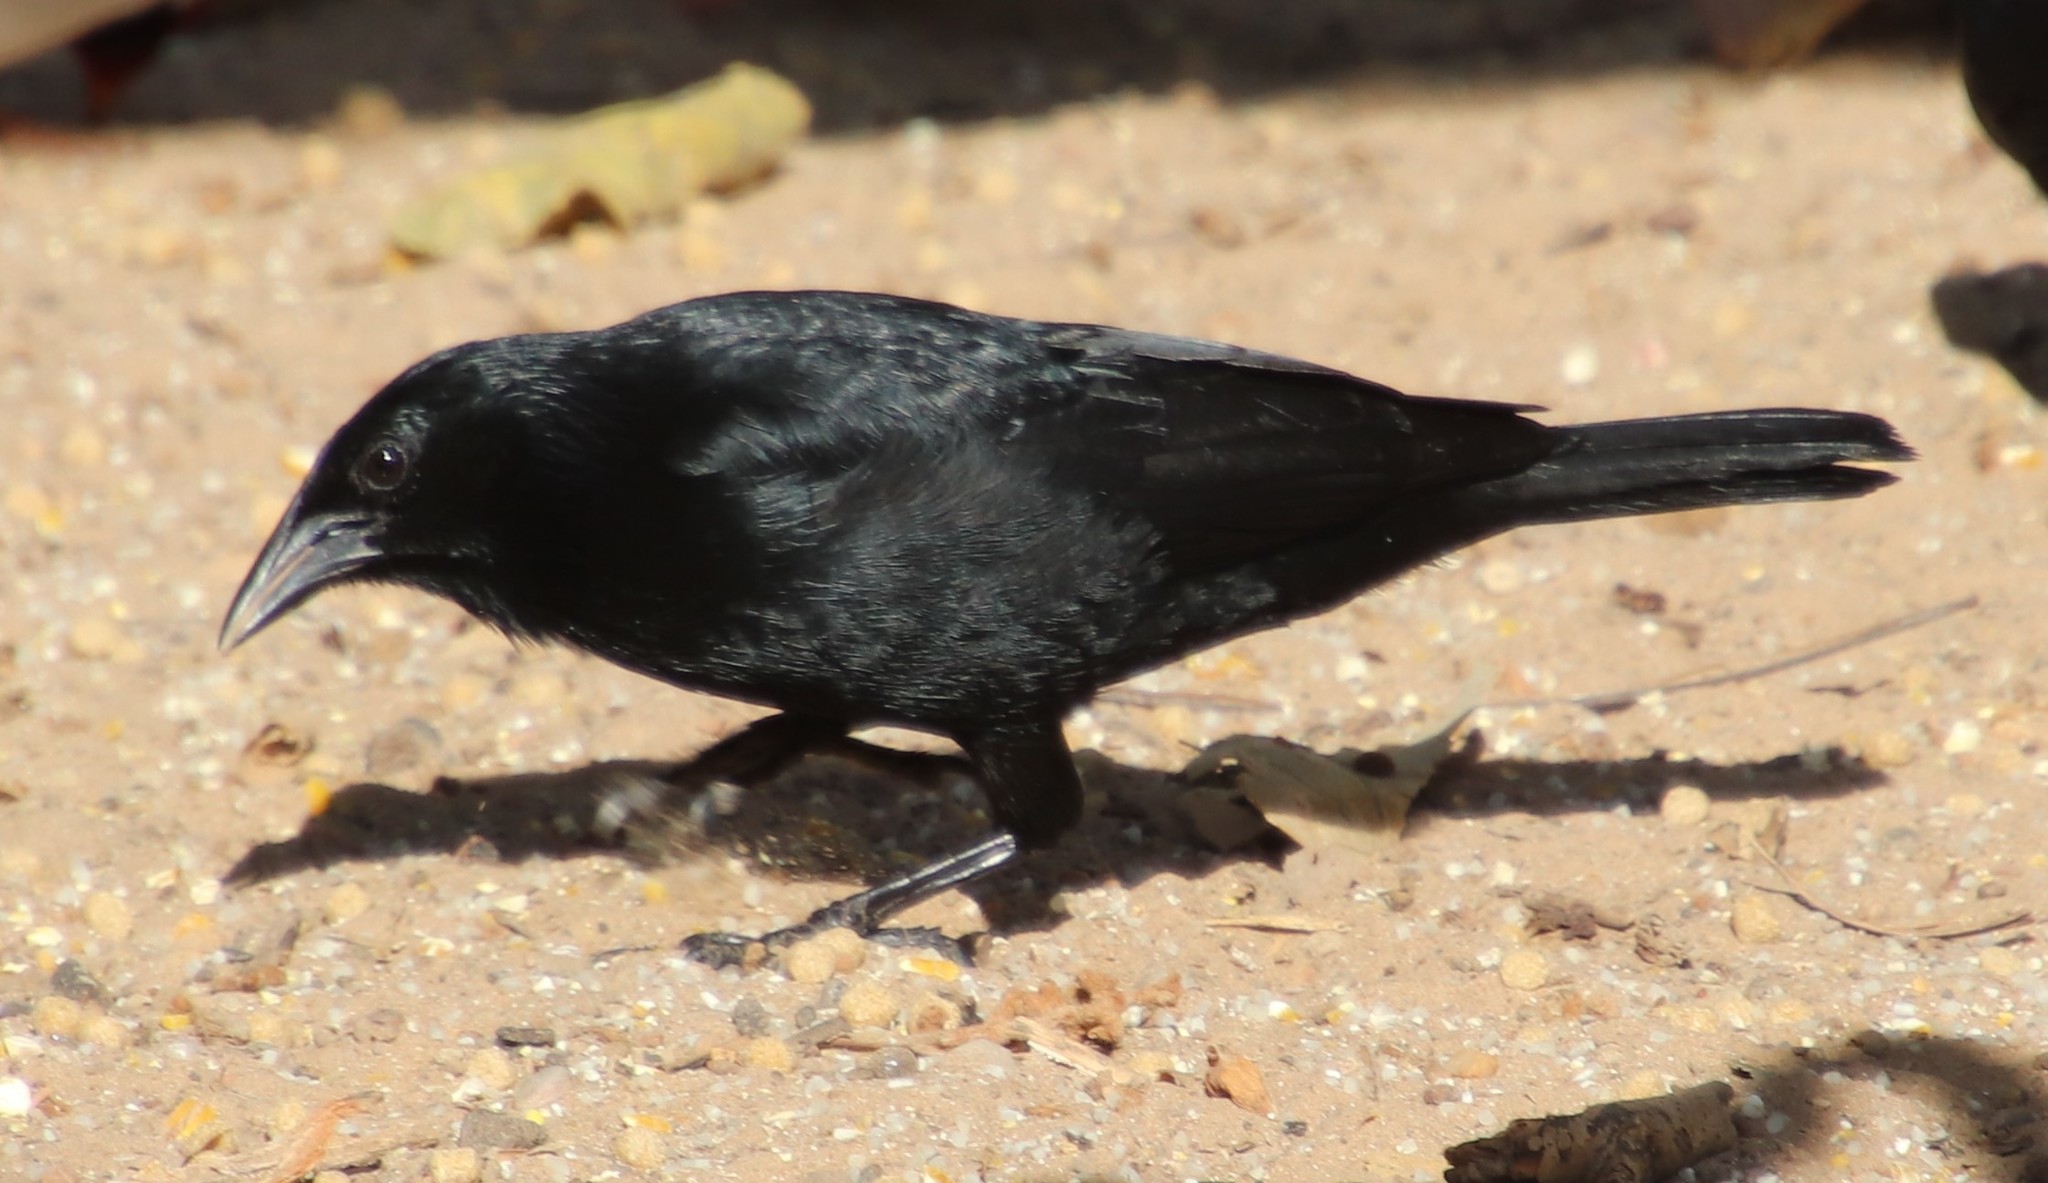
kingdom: Animalia
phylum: Chordata
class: Aves
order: Passeriformes
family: Icteridae
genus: Gnorimopsar
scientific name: Gnorimopsar chopi
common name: Chopi blackbird
